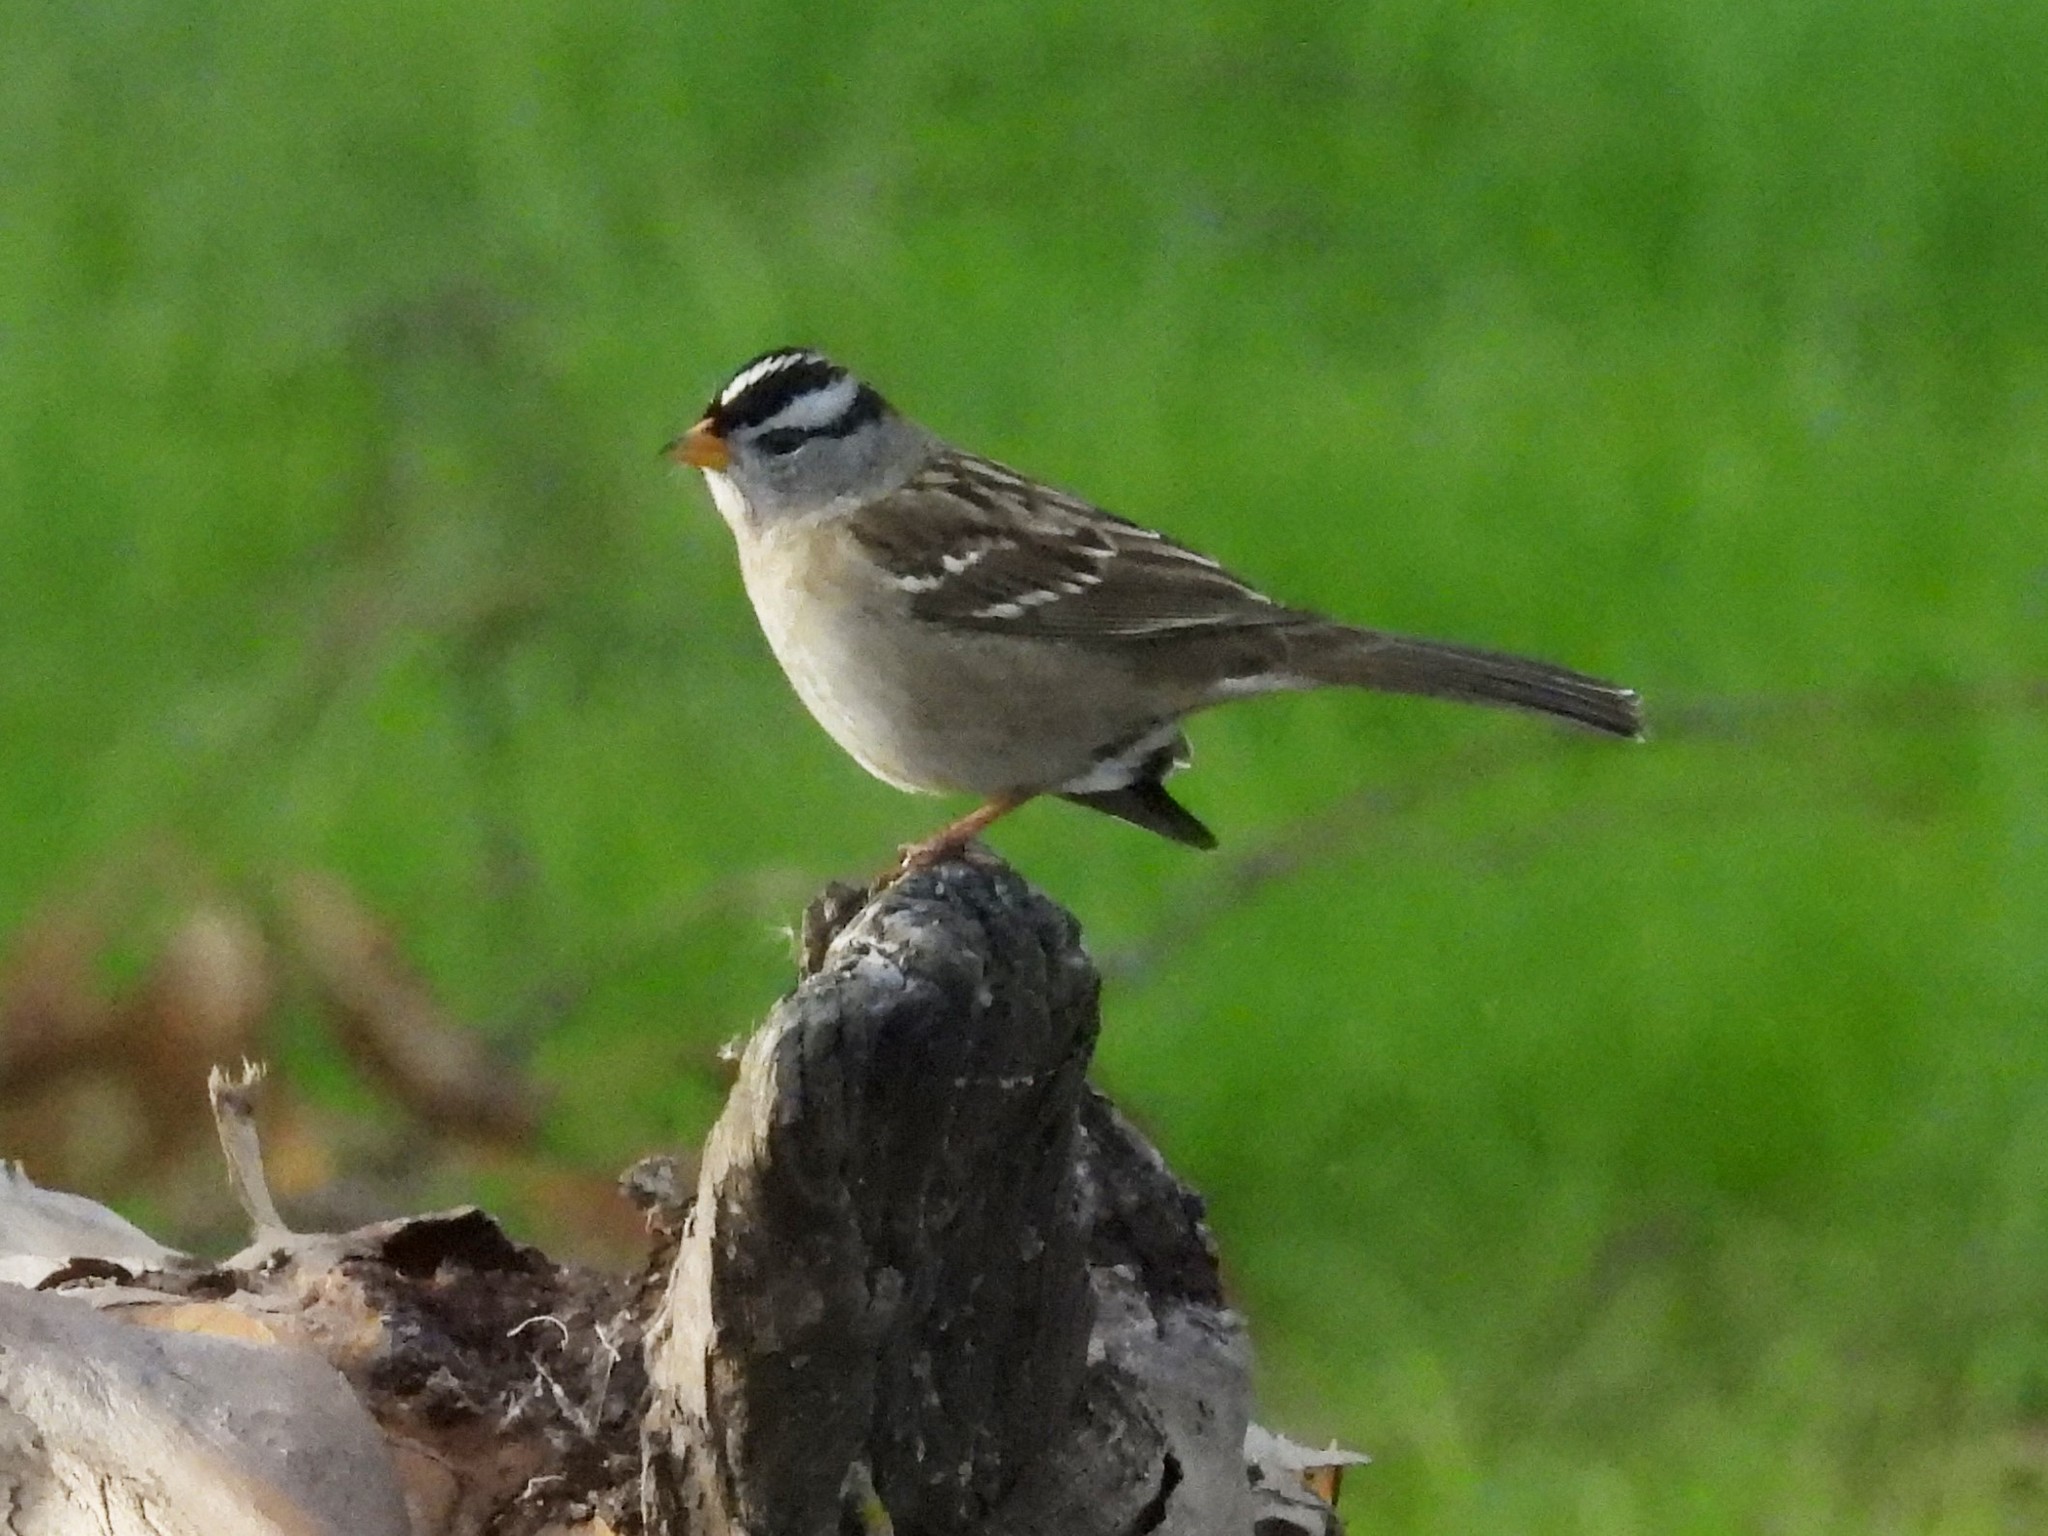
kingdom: Animalia
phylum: Chordata
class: Aves
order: Passeriformes
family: Passerellidae
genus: Zonotrichia
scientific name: Zonotrichia leucophrys
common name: White-crowned sparrow
